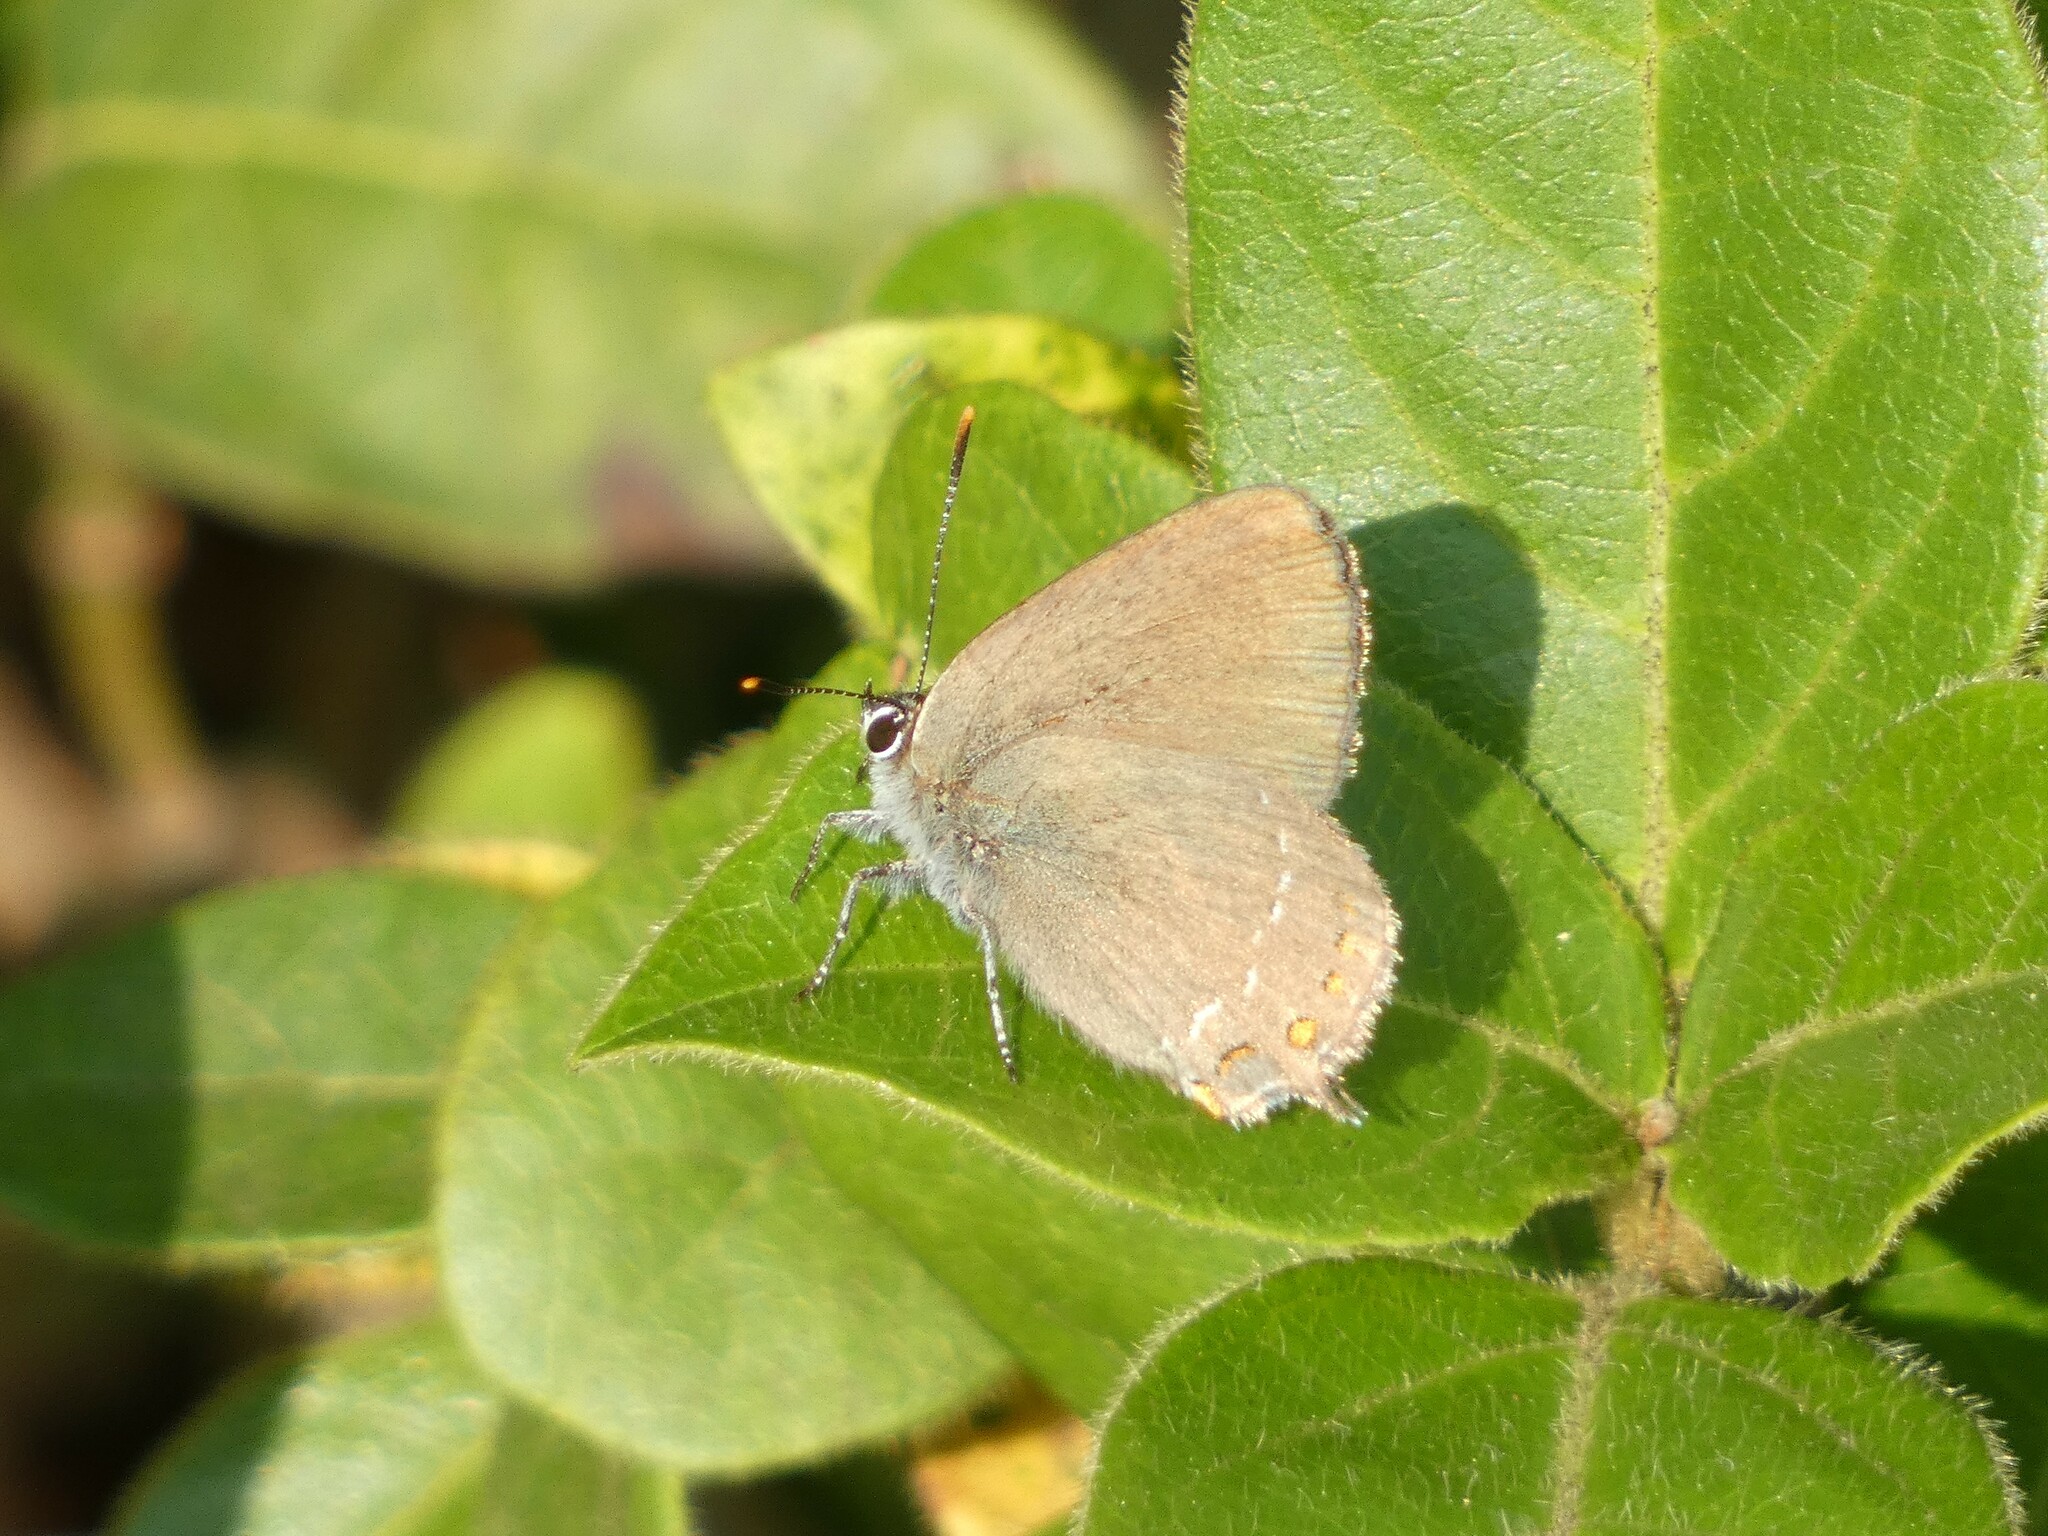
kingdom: Animalia
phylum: Arthropoda
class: Insecta
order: Lepidoptera
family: Lycaenidae
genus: Fixsenia
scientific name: Fixsenia esculi
